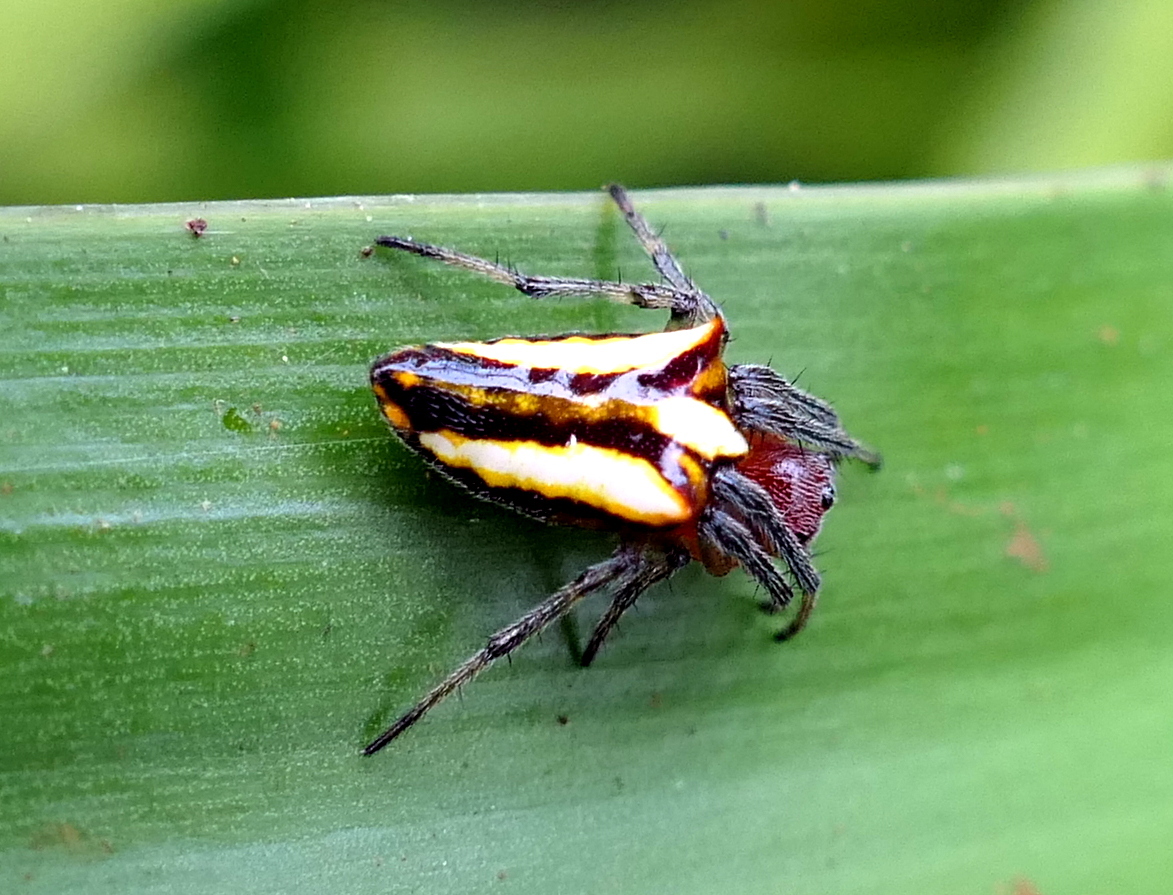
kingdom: Animalia
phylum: Arthropoda
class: Arachnida
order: Araneae
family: Araneidae
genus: Alpaida
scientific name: Alpaida bicornuta
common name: Orb weavers
